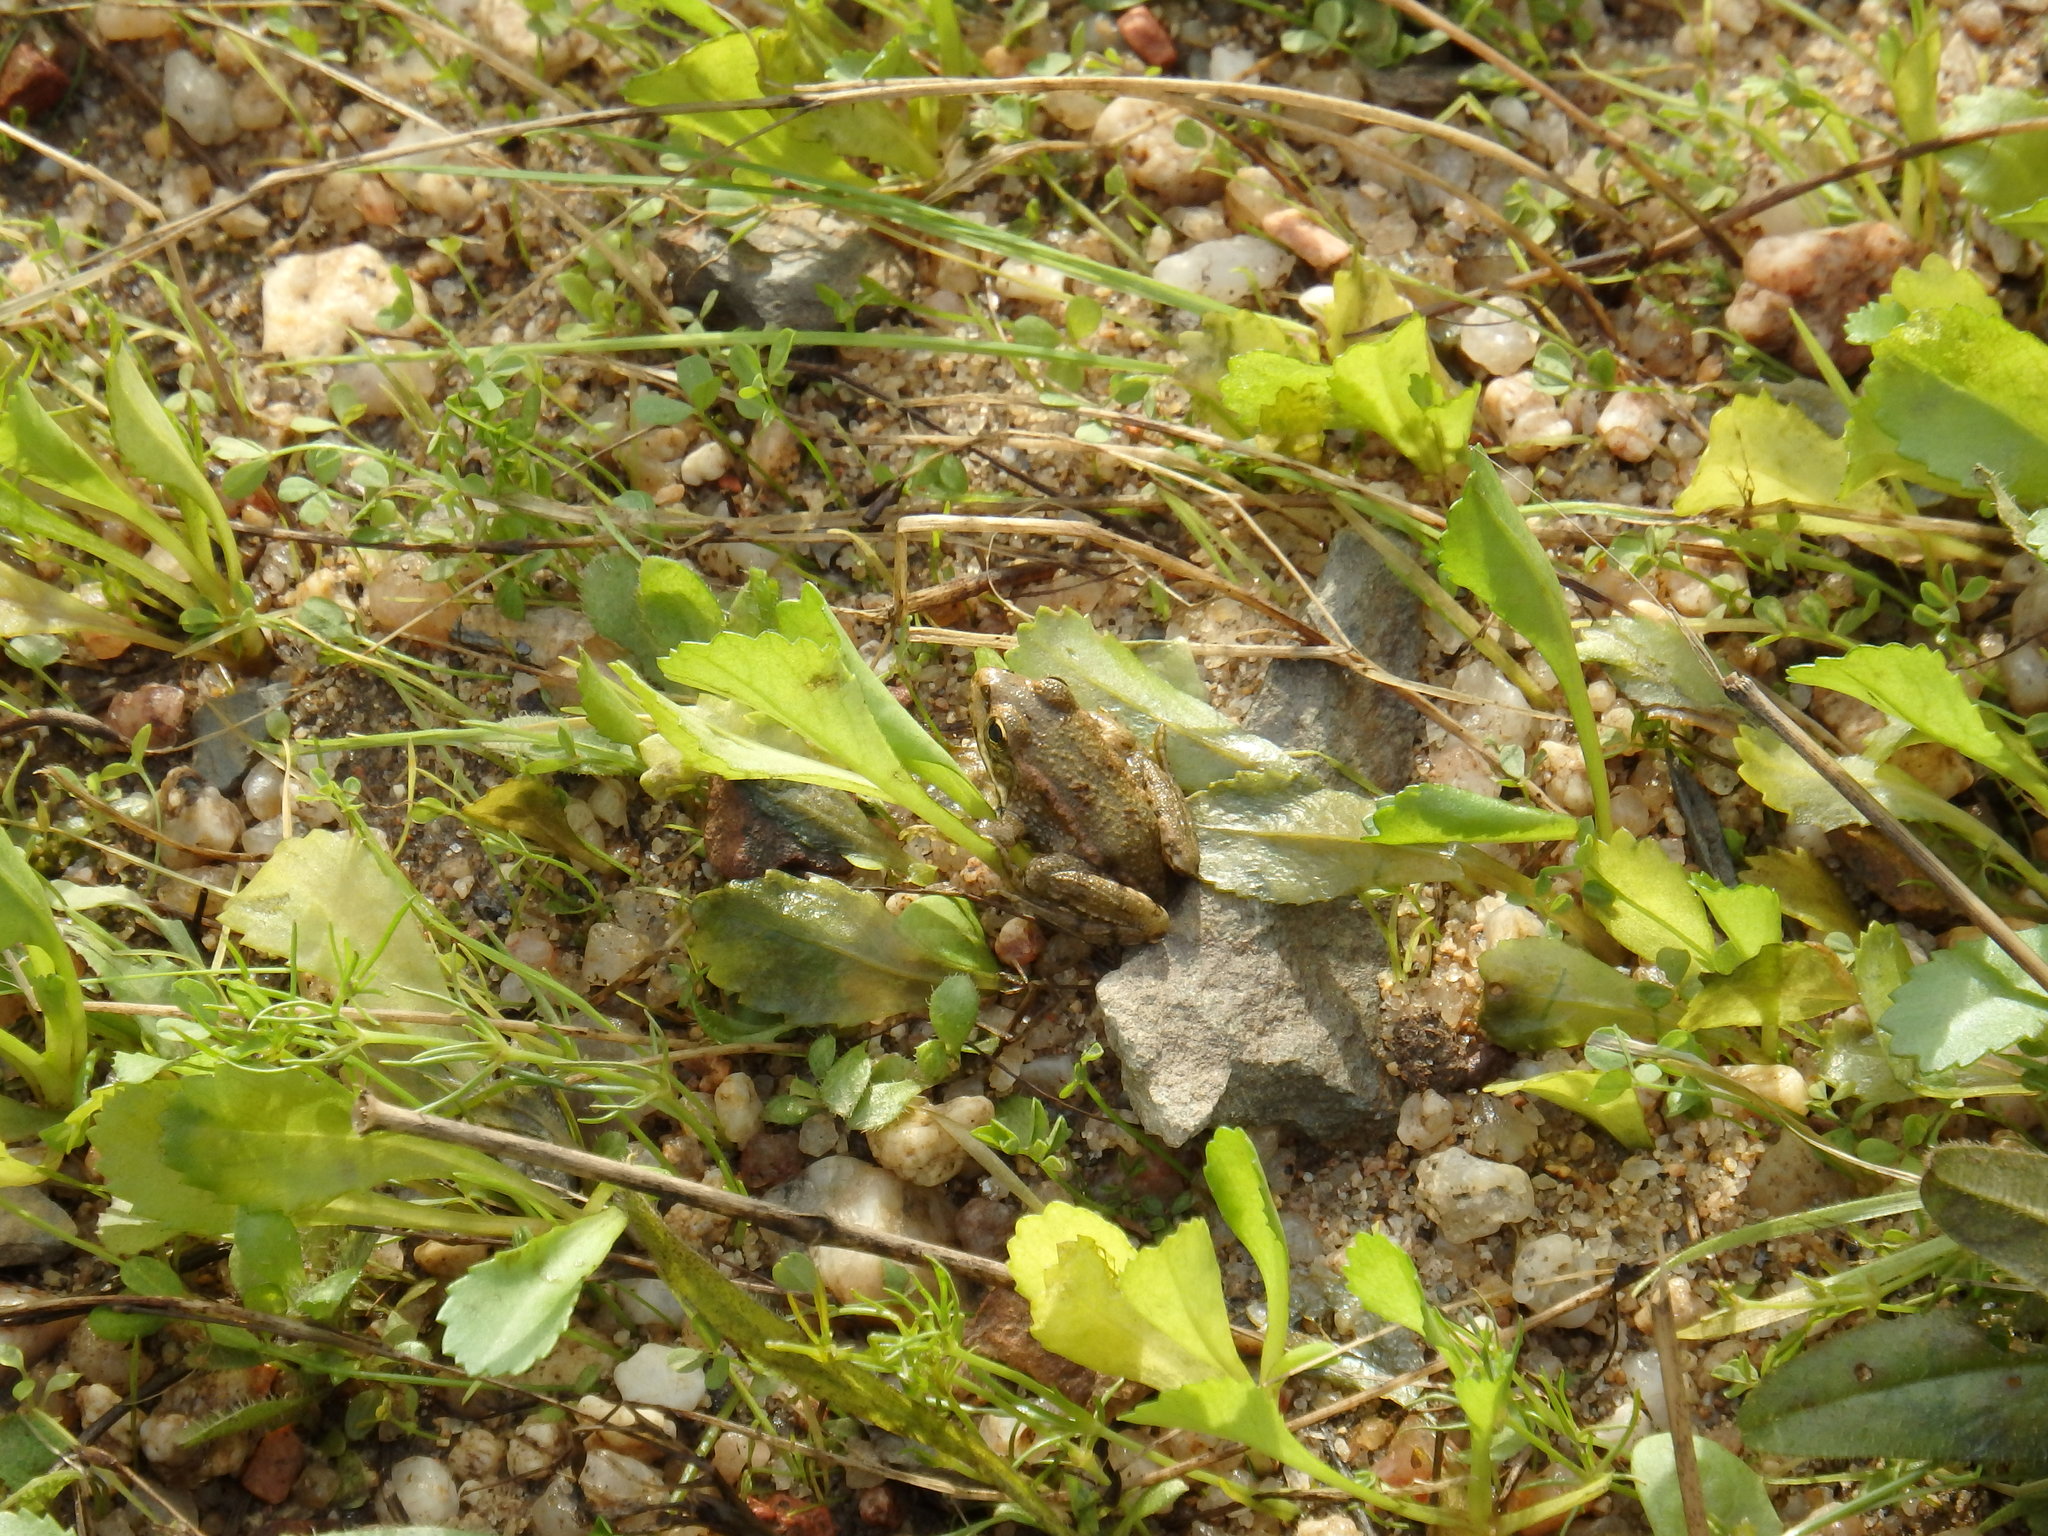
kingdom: Animalia
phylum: Chordata
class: Amphibia
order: Anura
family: Ranidae
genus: Pelophylax
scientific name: Pelophylax perezi
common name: Perez's frog
